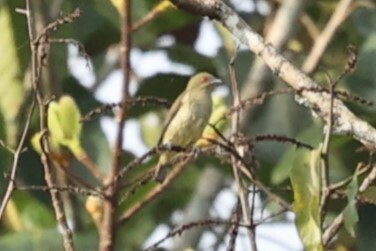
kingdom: Animalia
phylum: Chordata
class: Aves
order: Passeriformes
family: Thraupidae
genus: Dacnis
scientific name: Dacnis flaviventer
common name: Yellow-bellied dacnis
